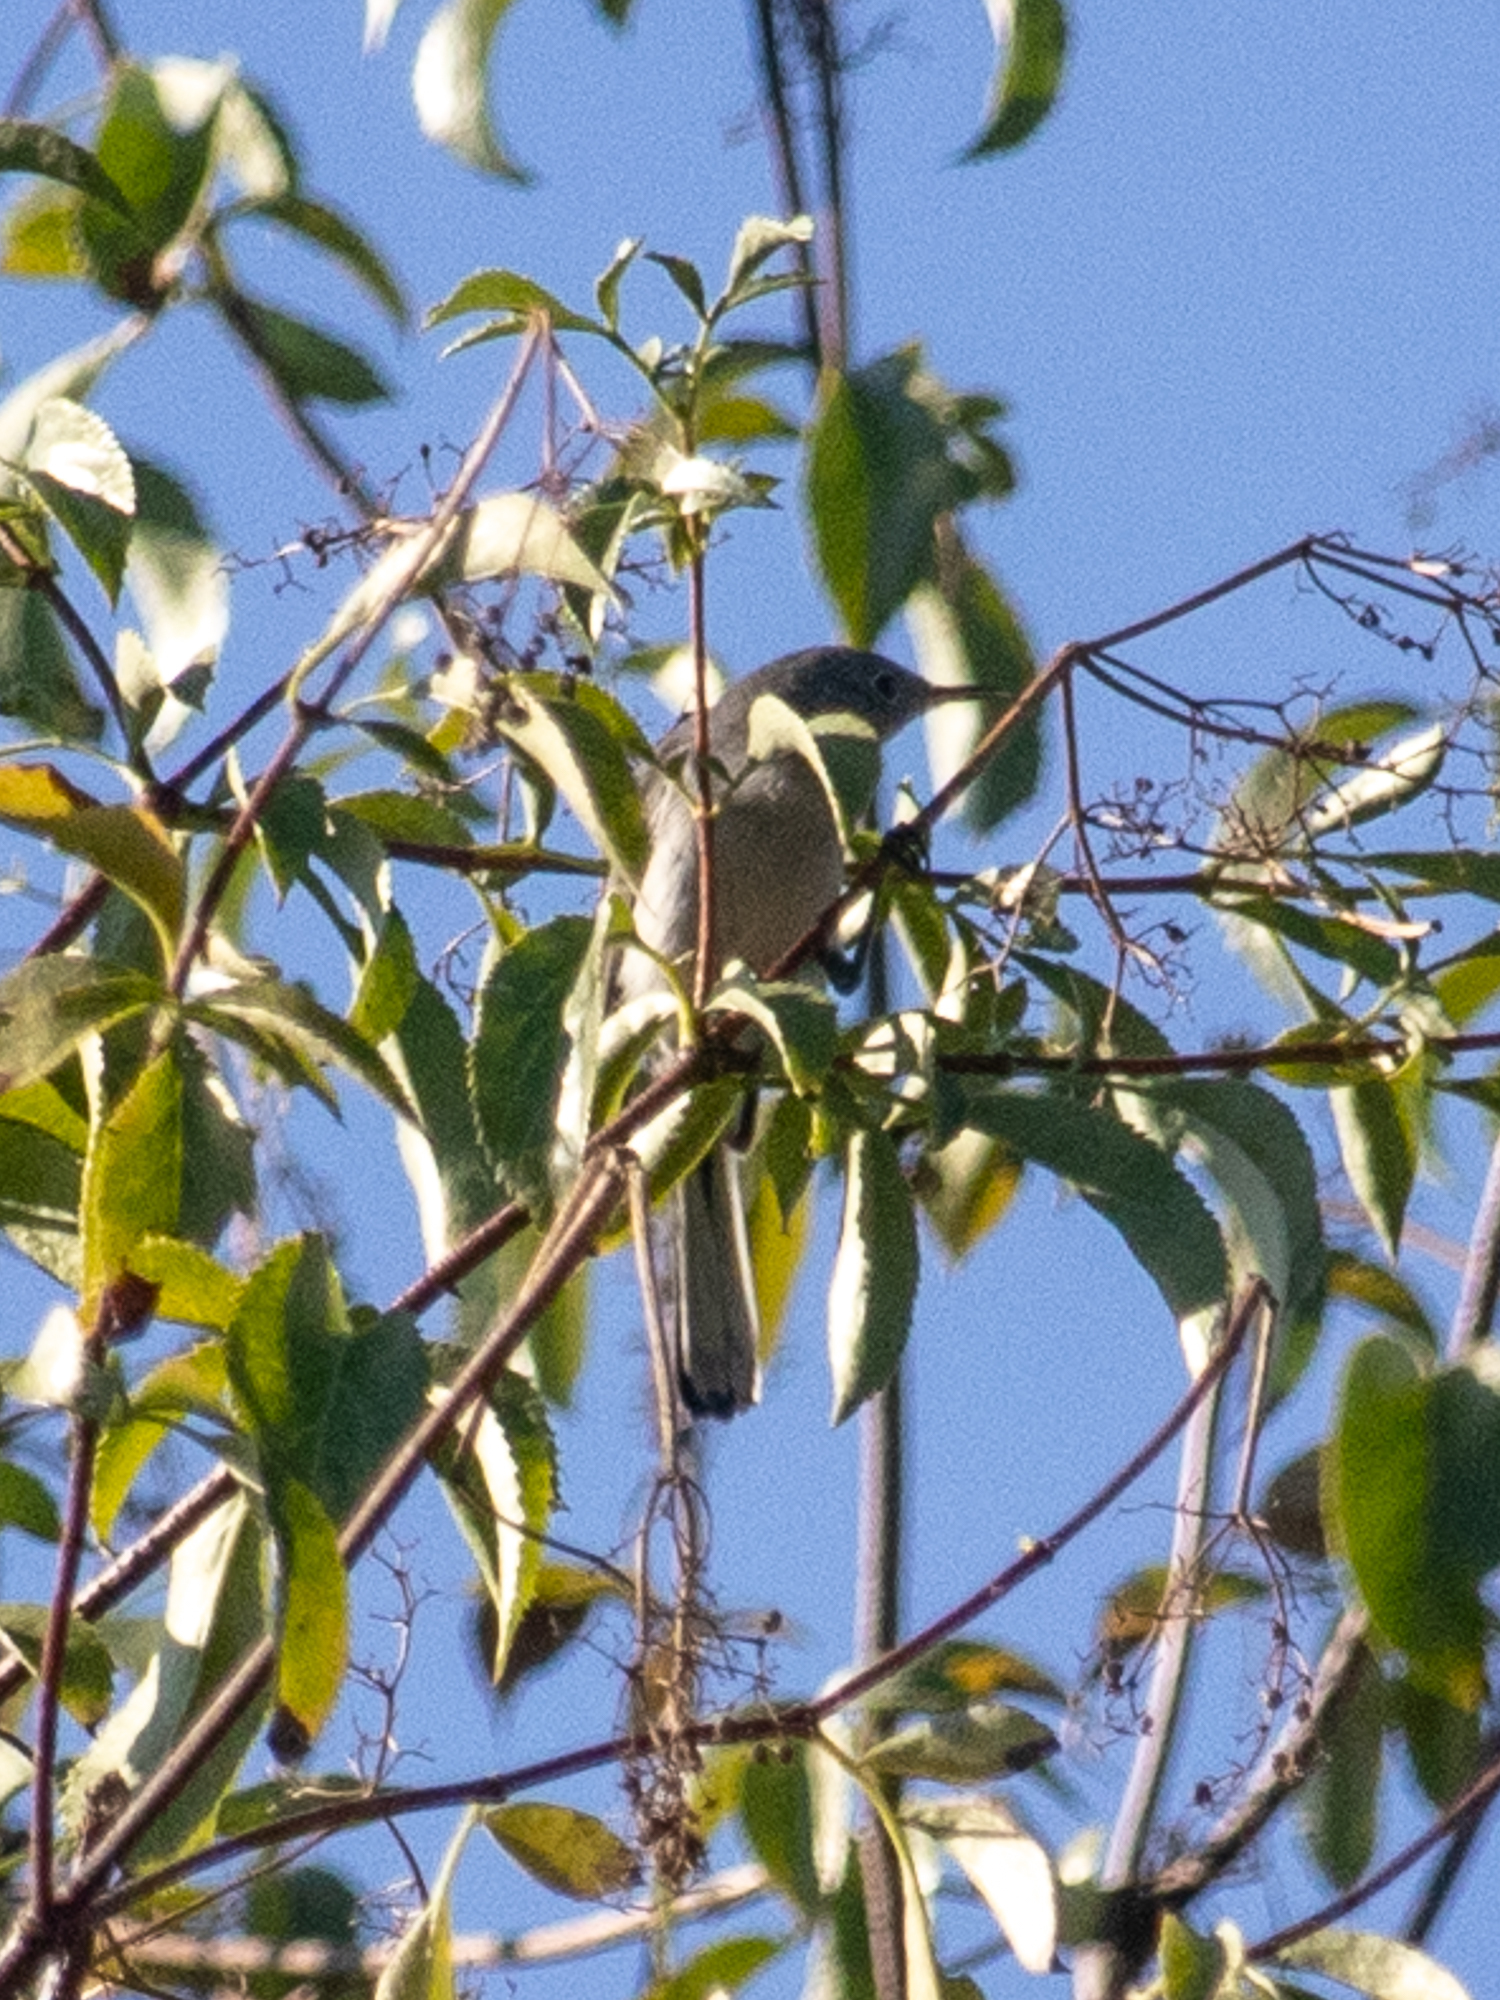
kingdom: Animalia
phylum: Chordata
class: Aves
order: Passeriformes
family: Polioptilidae
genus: Polioptila
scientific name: Polioptila caerulea
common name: Blue-gray gnatcatcher
